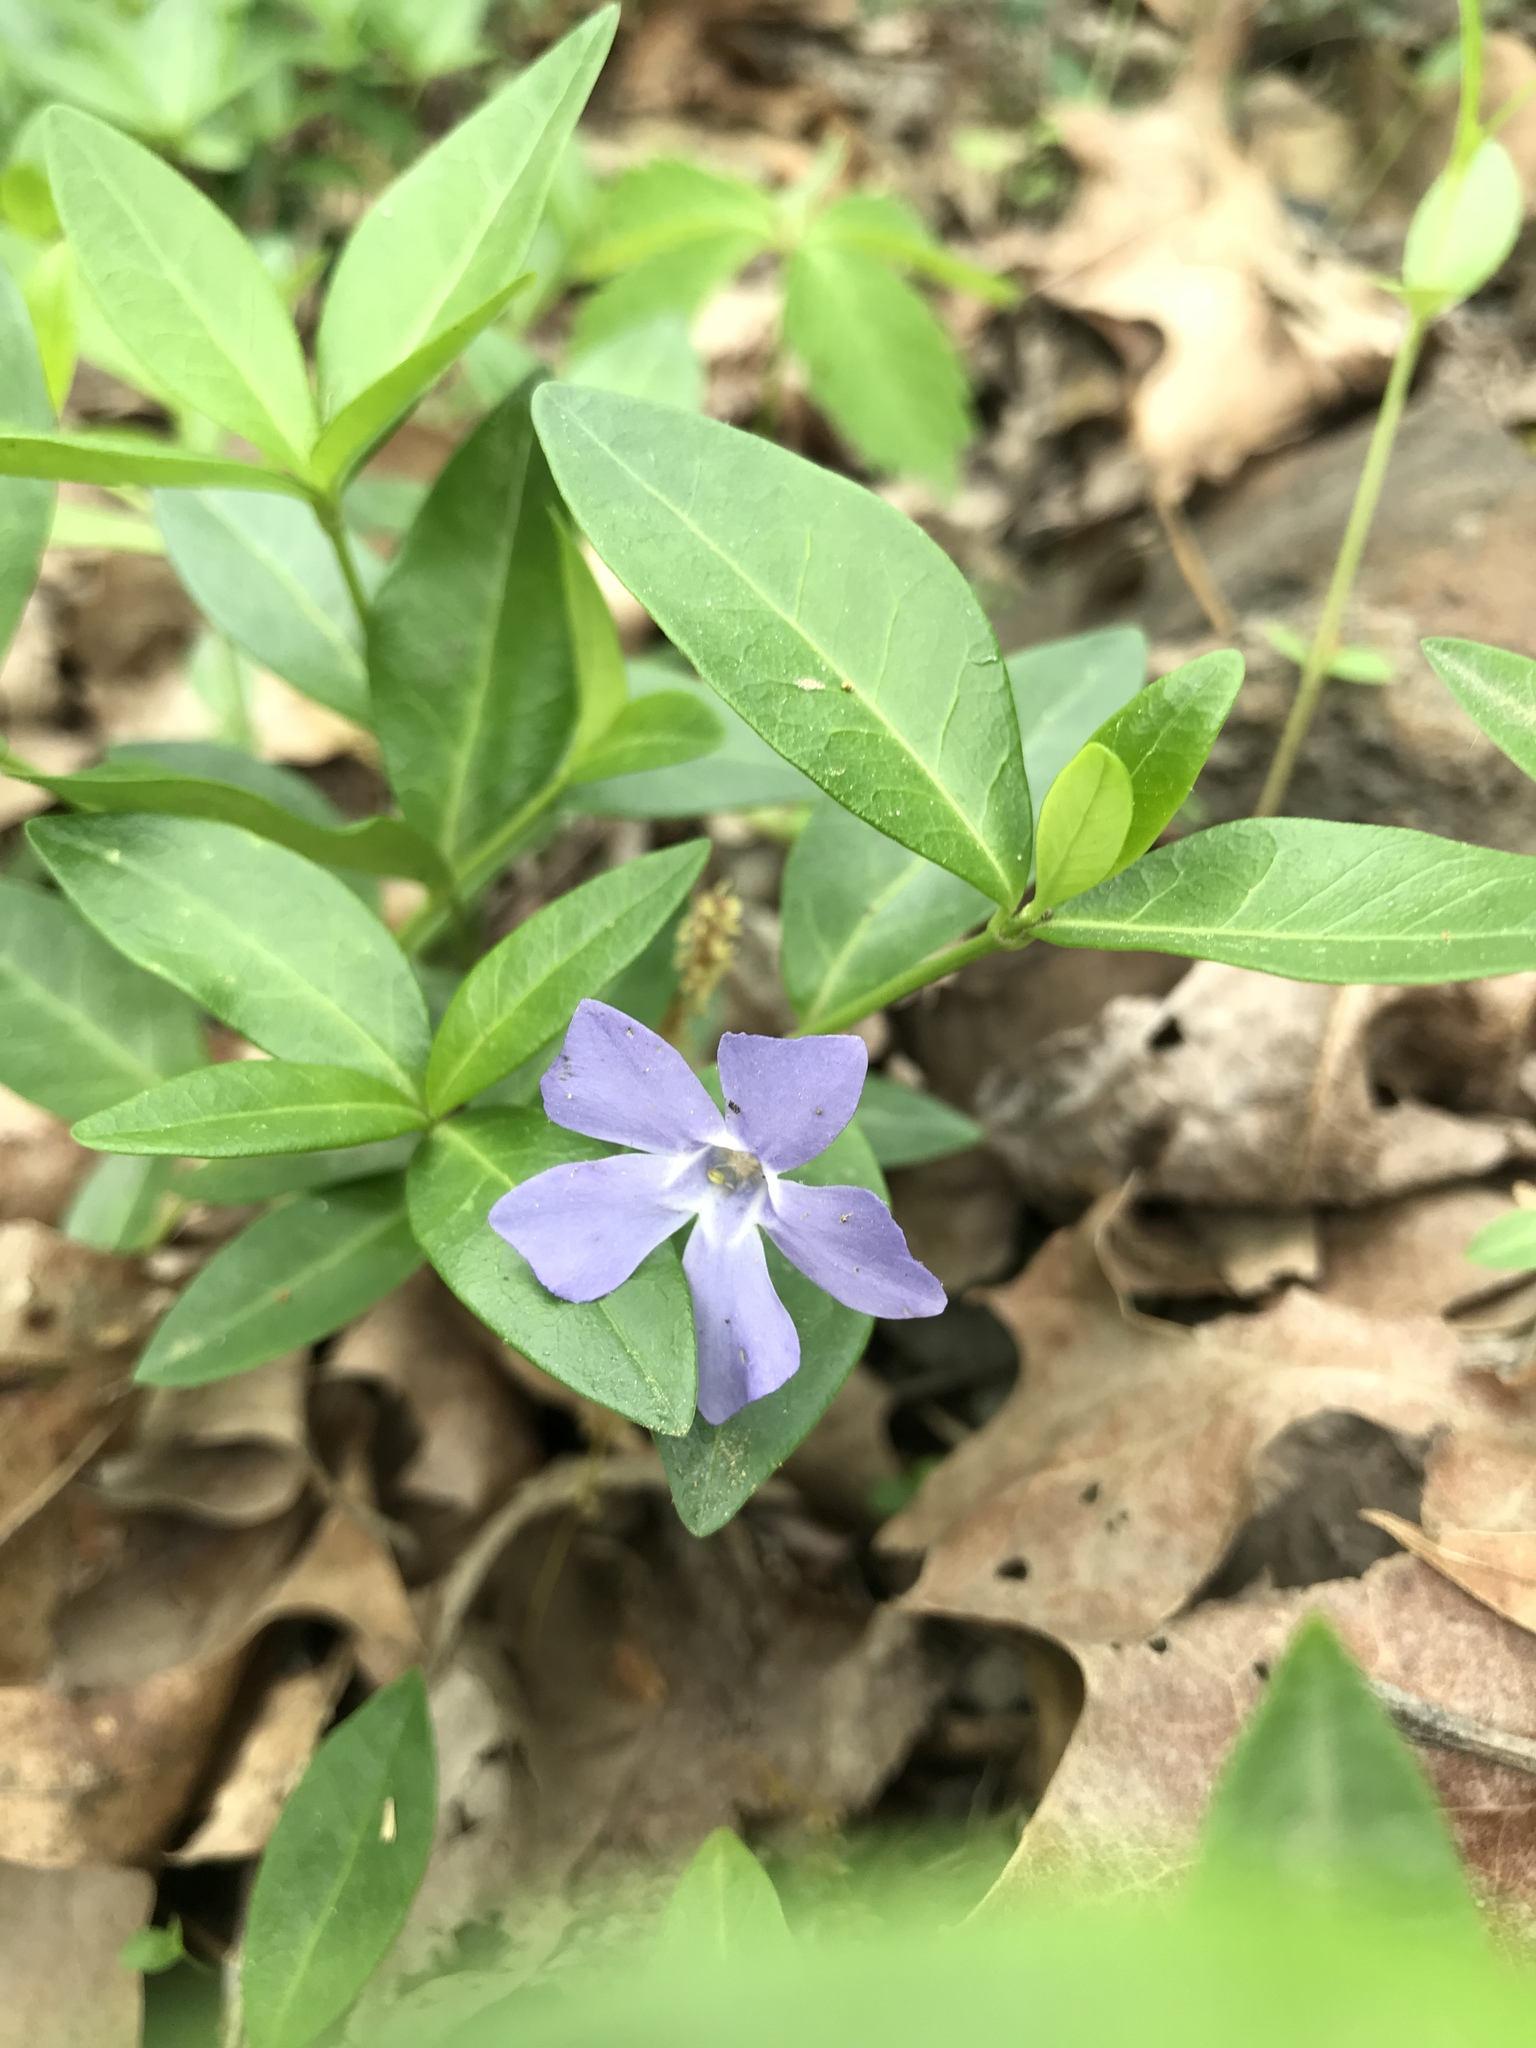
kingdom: Plantae
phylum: Tracheophyta
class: Magnoliopsida
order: Gentianales
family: Apocynaceae
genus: Vinca
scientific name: Vinca minor
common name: Lesser periwinkle
